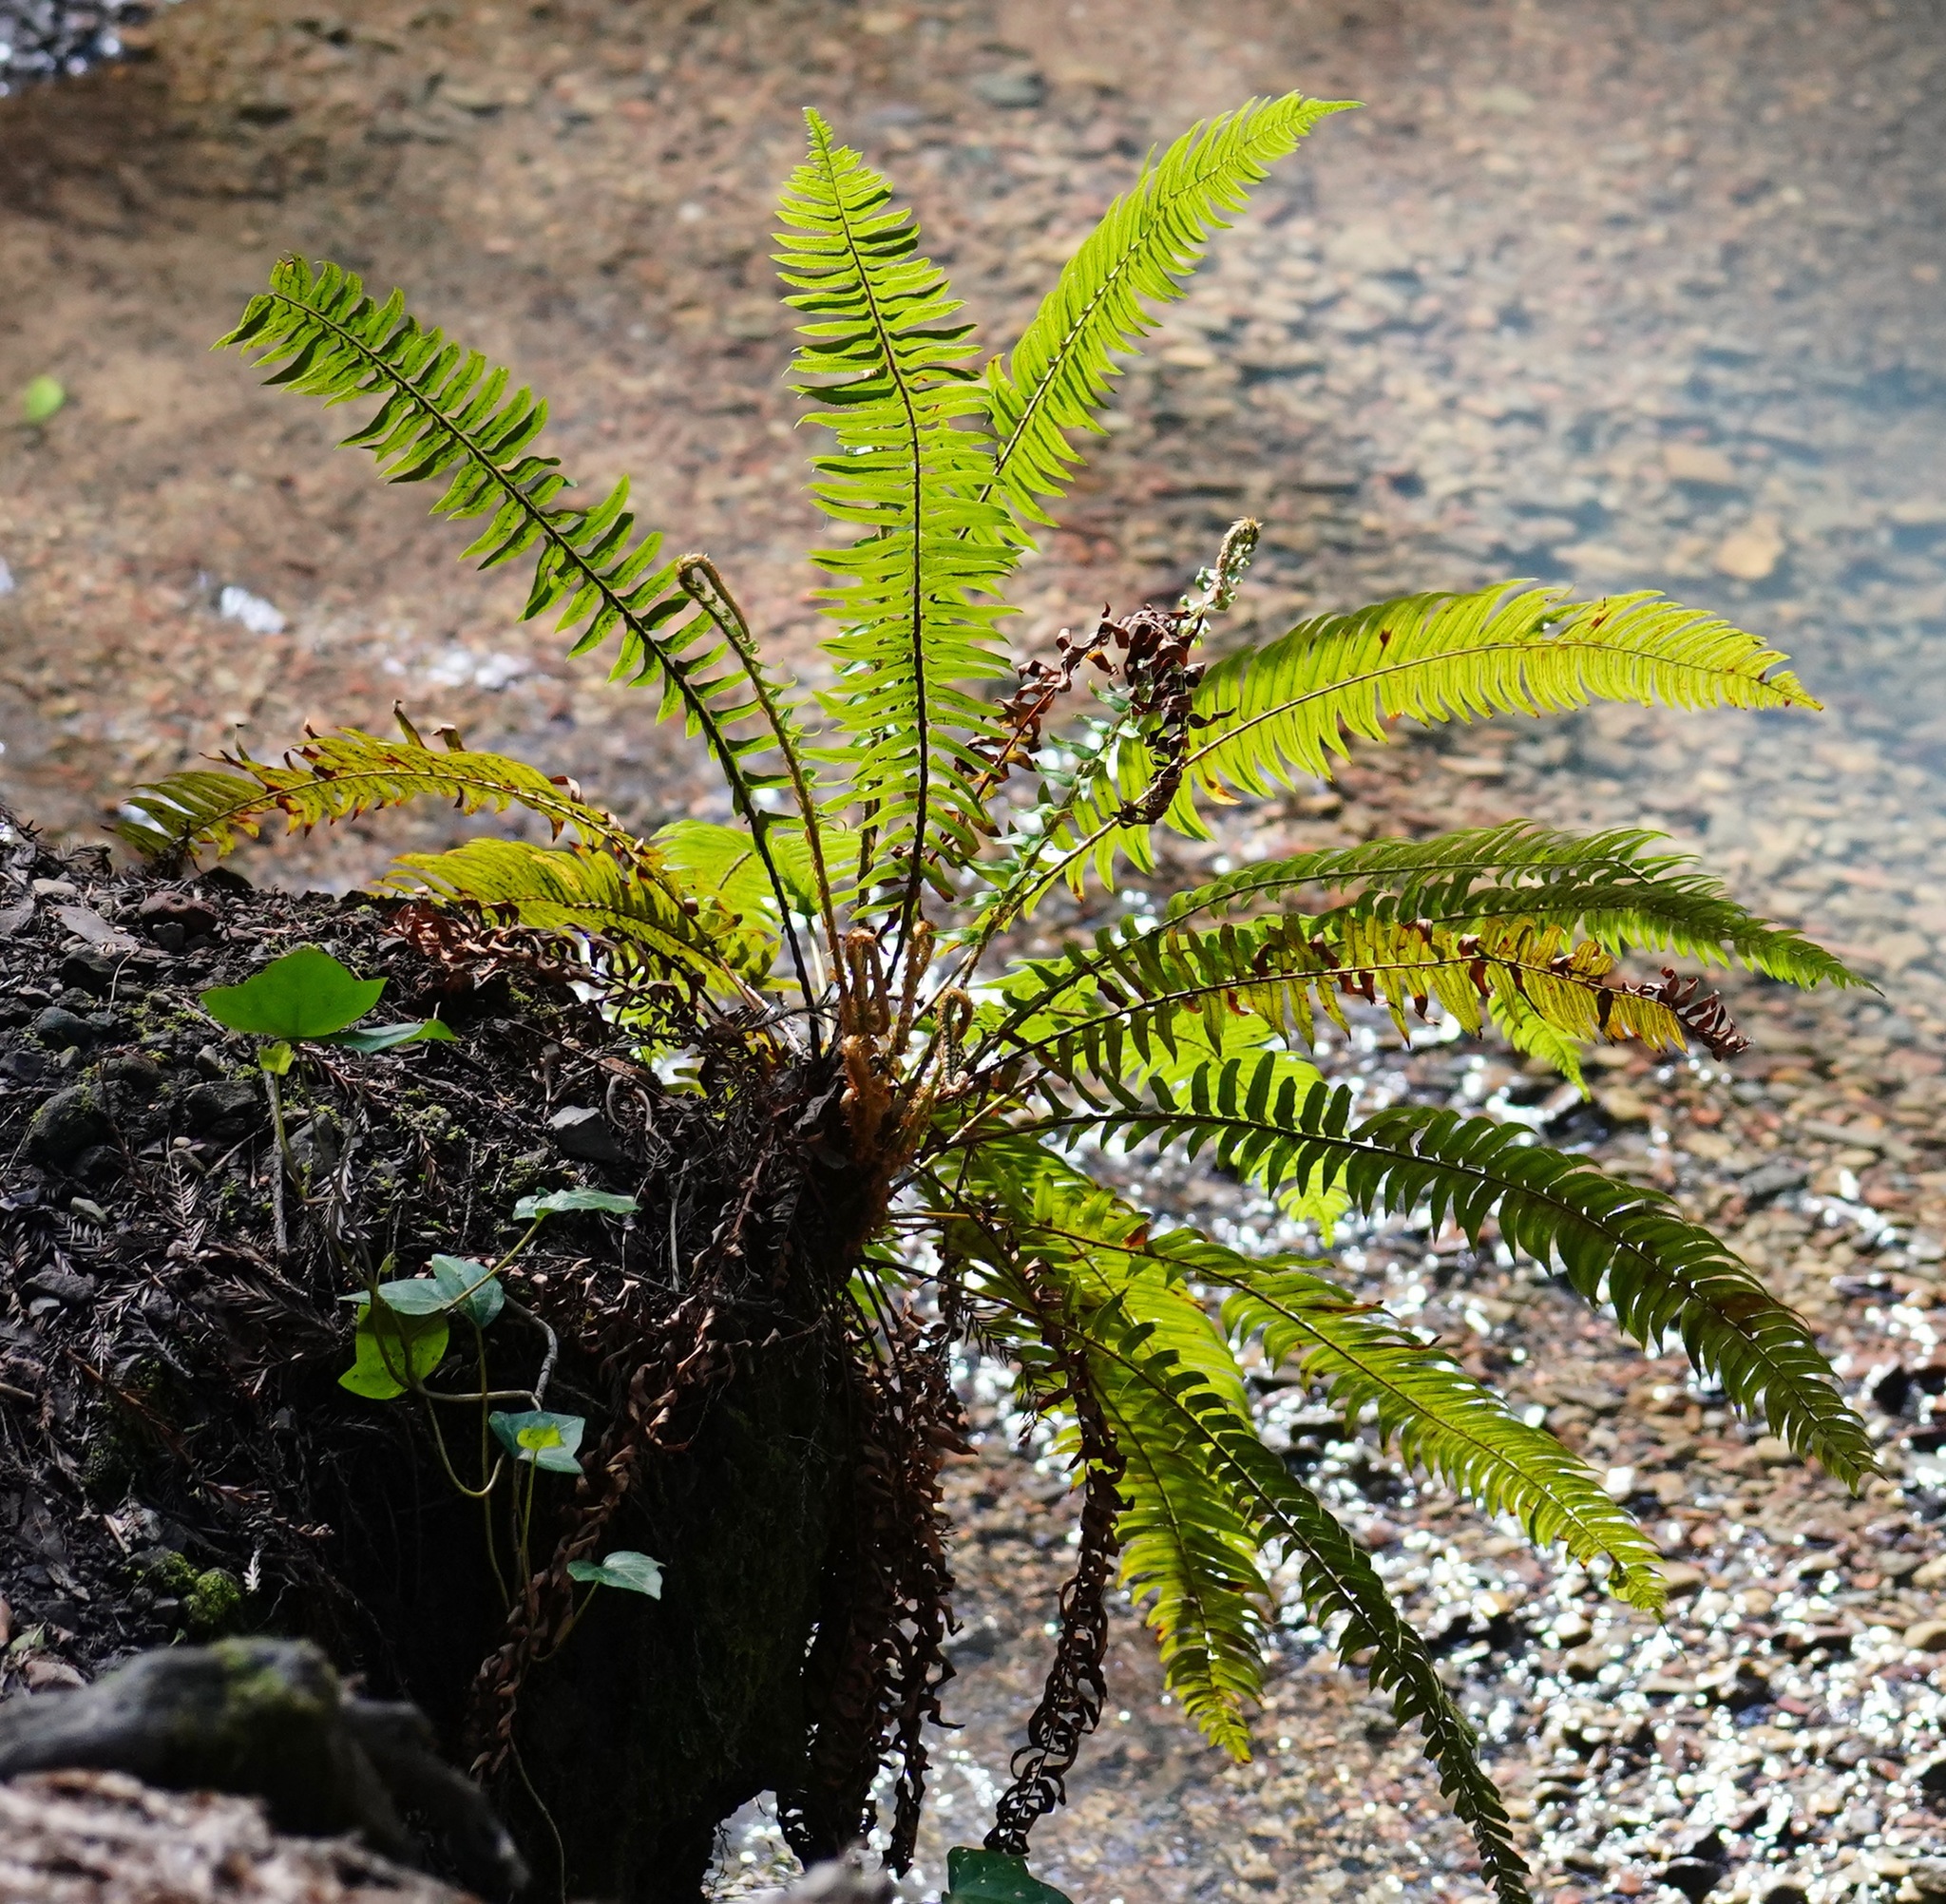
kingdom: Plantae
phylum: Tracheophyta
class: Polypodiopsida
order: Polypodiales
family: Dryopteridaceae
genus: Polystichum
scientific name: Polystichum munitum
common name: Western sword-fern
